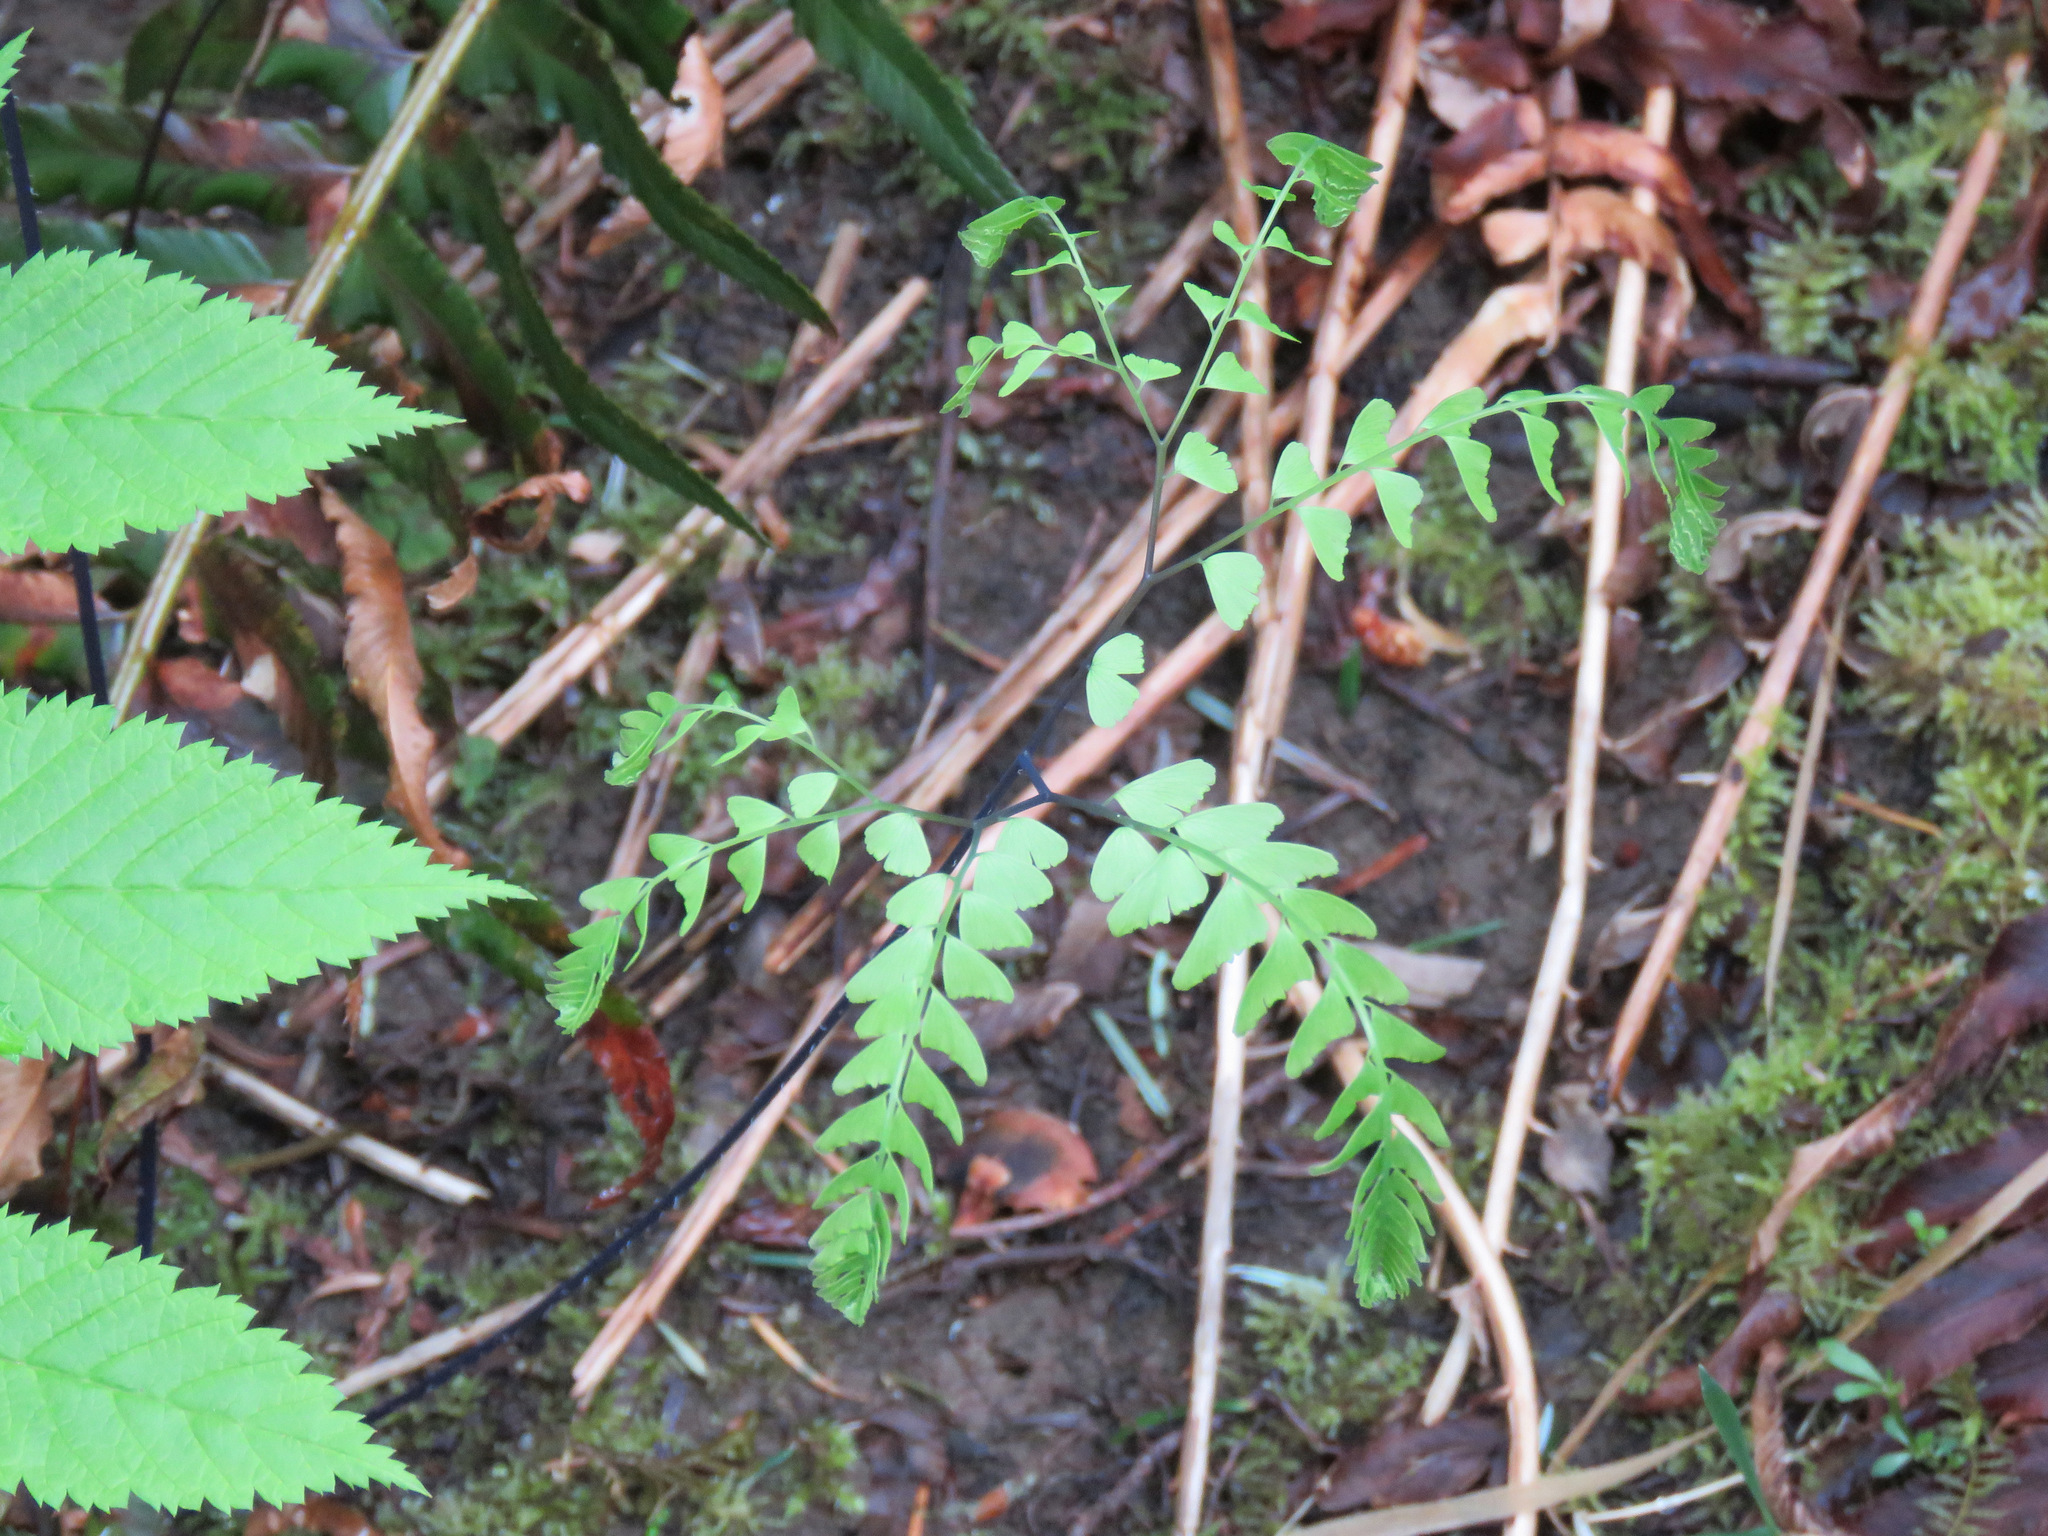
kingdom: Plantae
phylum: Tracheophyta
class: Polypodiopsida
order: Polypodiales
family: Pteridaceae
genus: Adiantum
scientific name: Adiantum aleuticum
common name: Aleutian maidenhair fern
